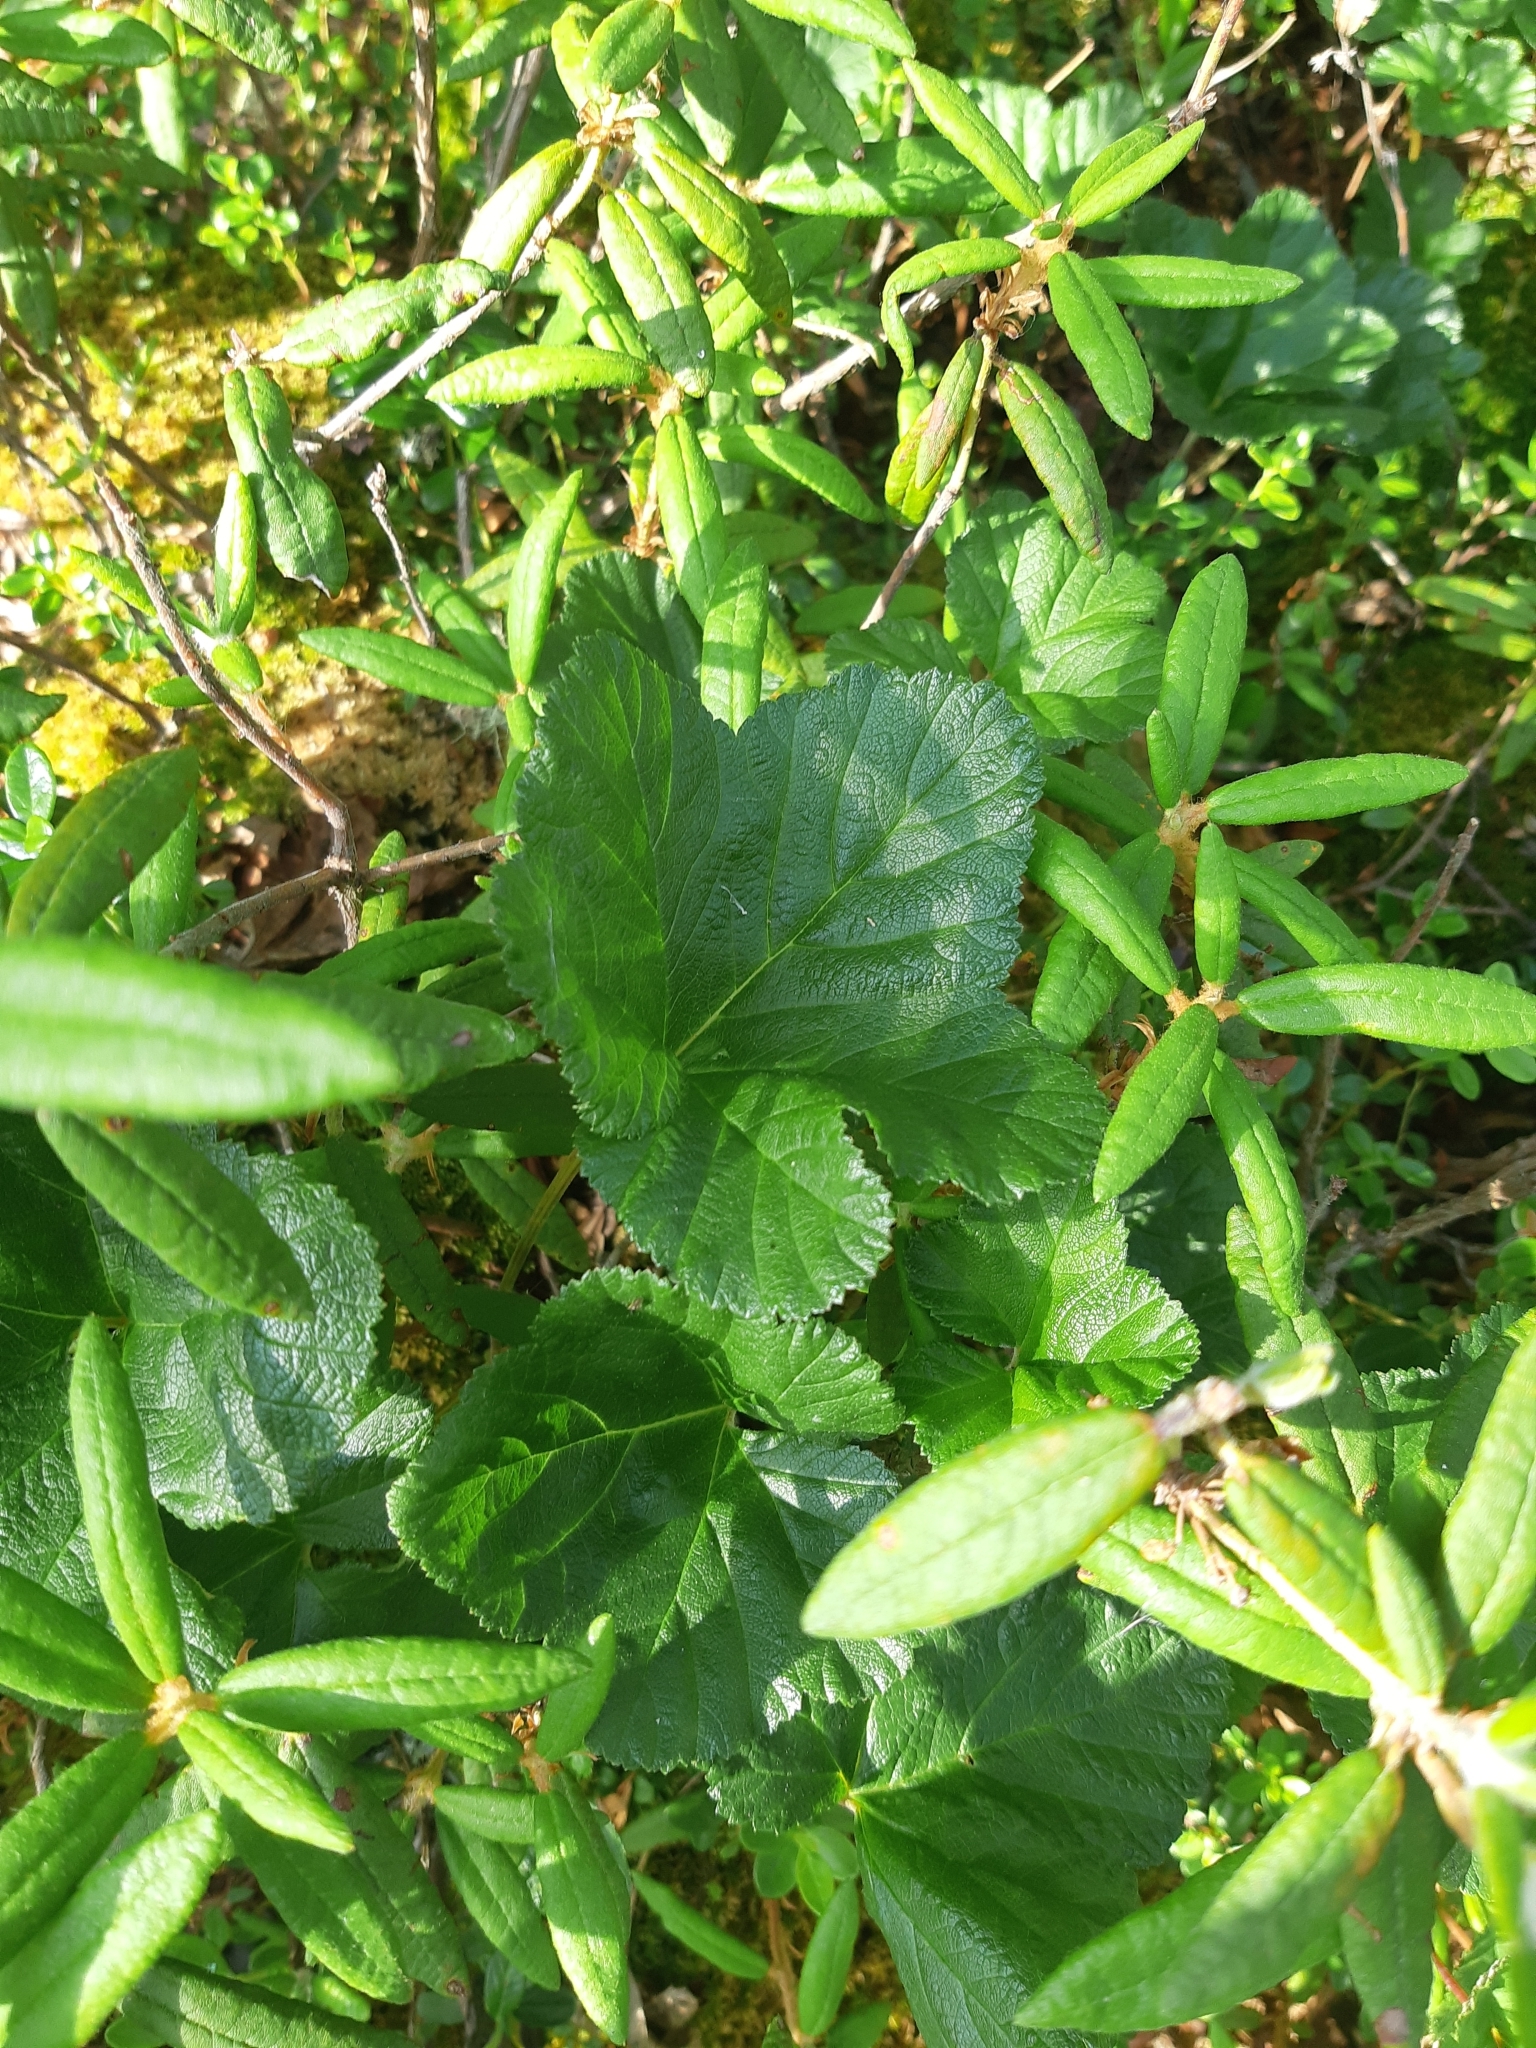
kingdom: Plantae
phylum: Tracheophyta
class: Magnoliopsida
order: Rosales
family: Rosaceae
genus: Rubus
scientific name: Rubus chamaemorus
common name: Cloudberry
